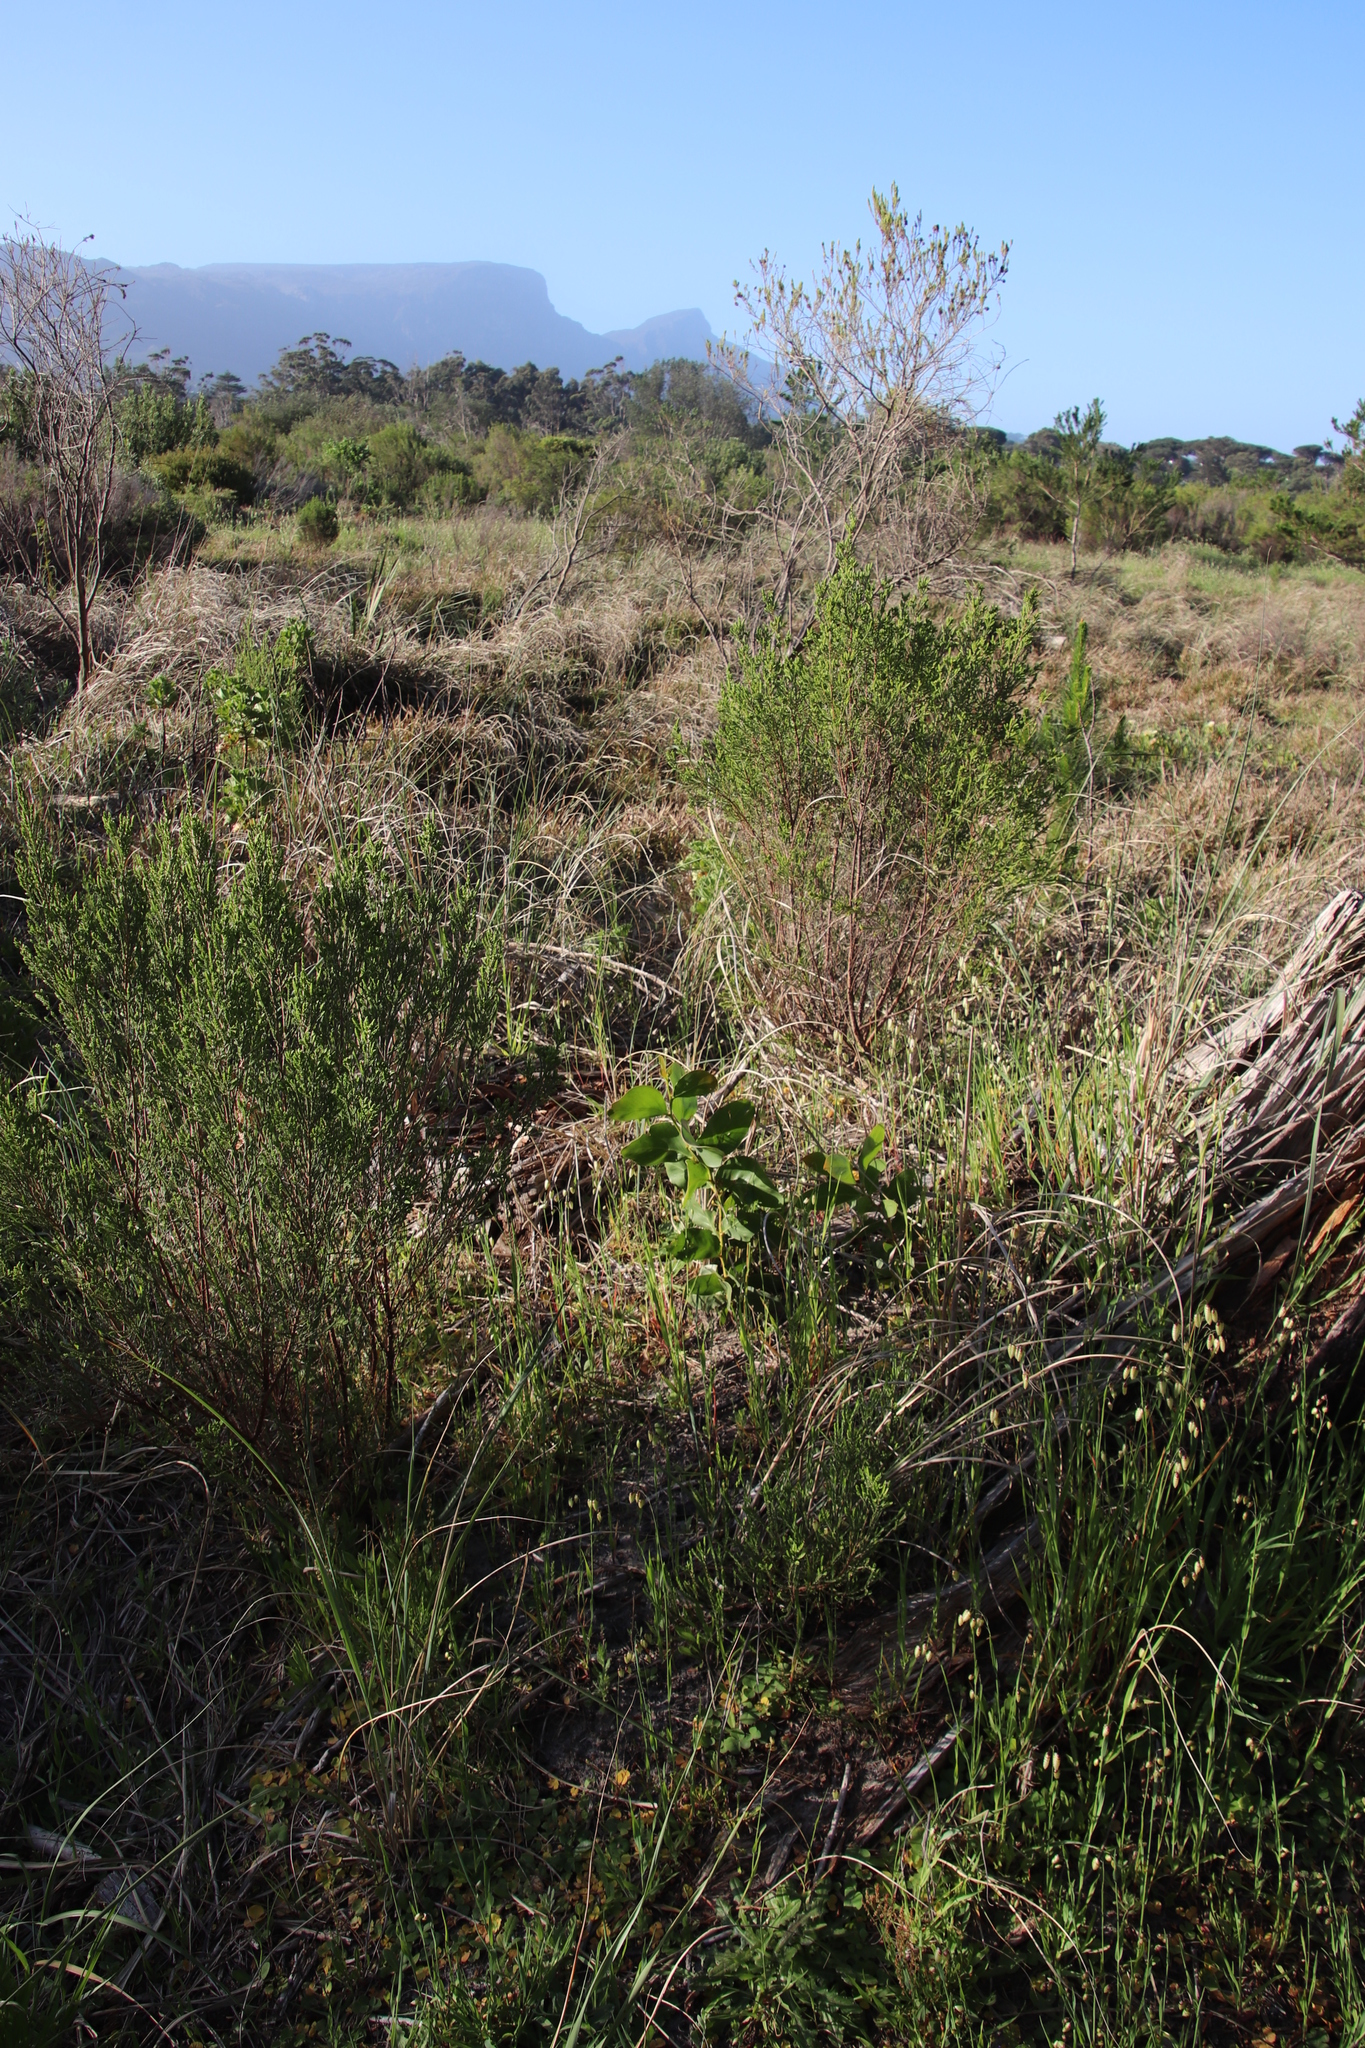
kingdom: Plantae
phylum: Tracheophyta
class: Magnoliopsida
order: Fabales
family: Fabaceae
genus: Acacia
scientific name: Acacia pycnantha
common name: Golden wattle
